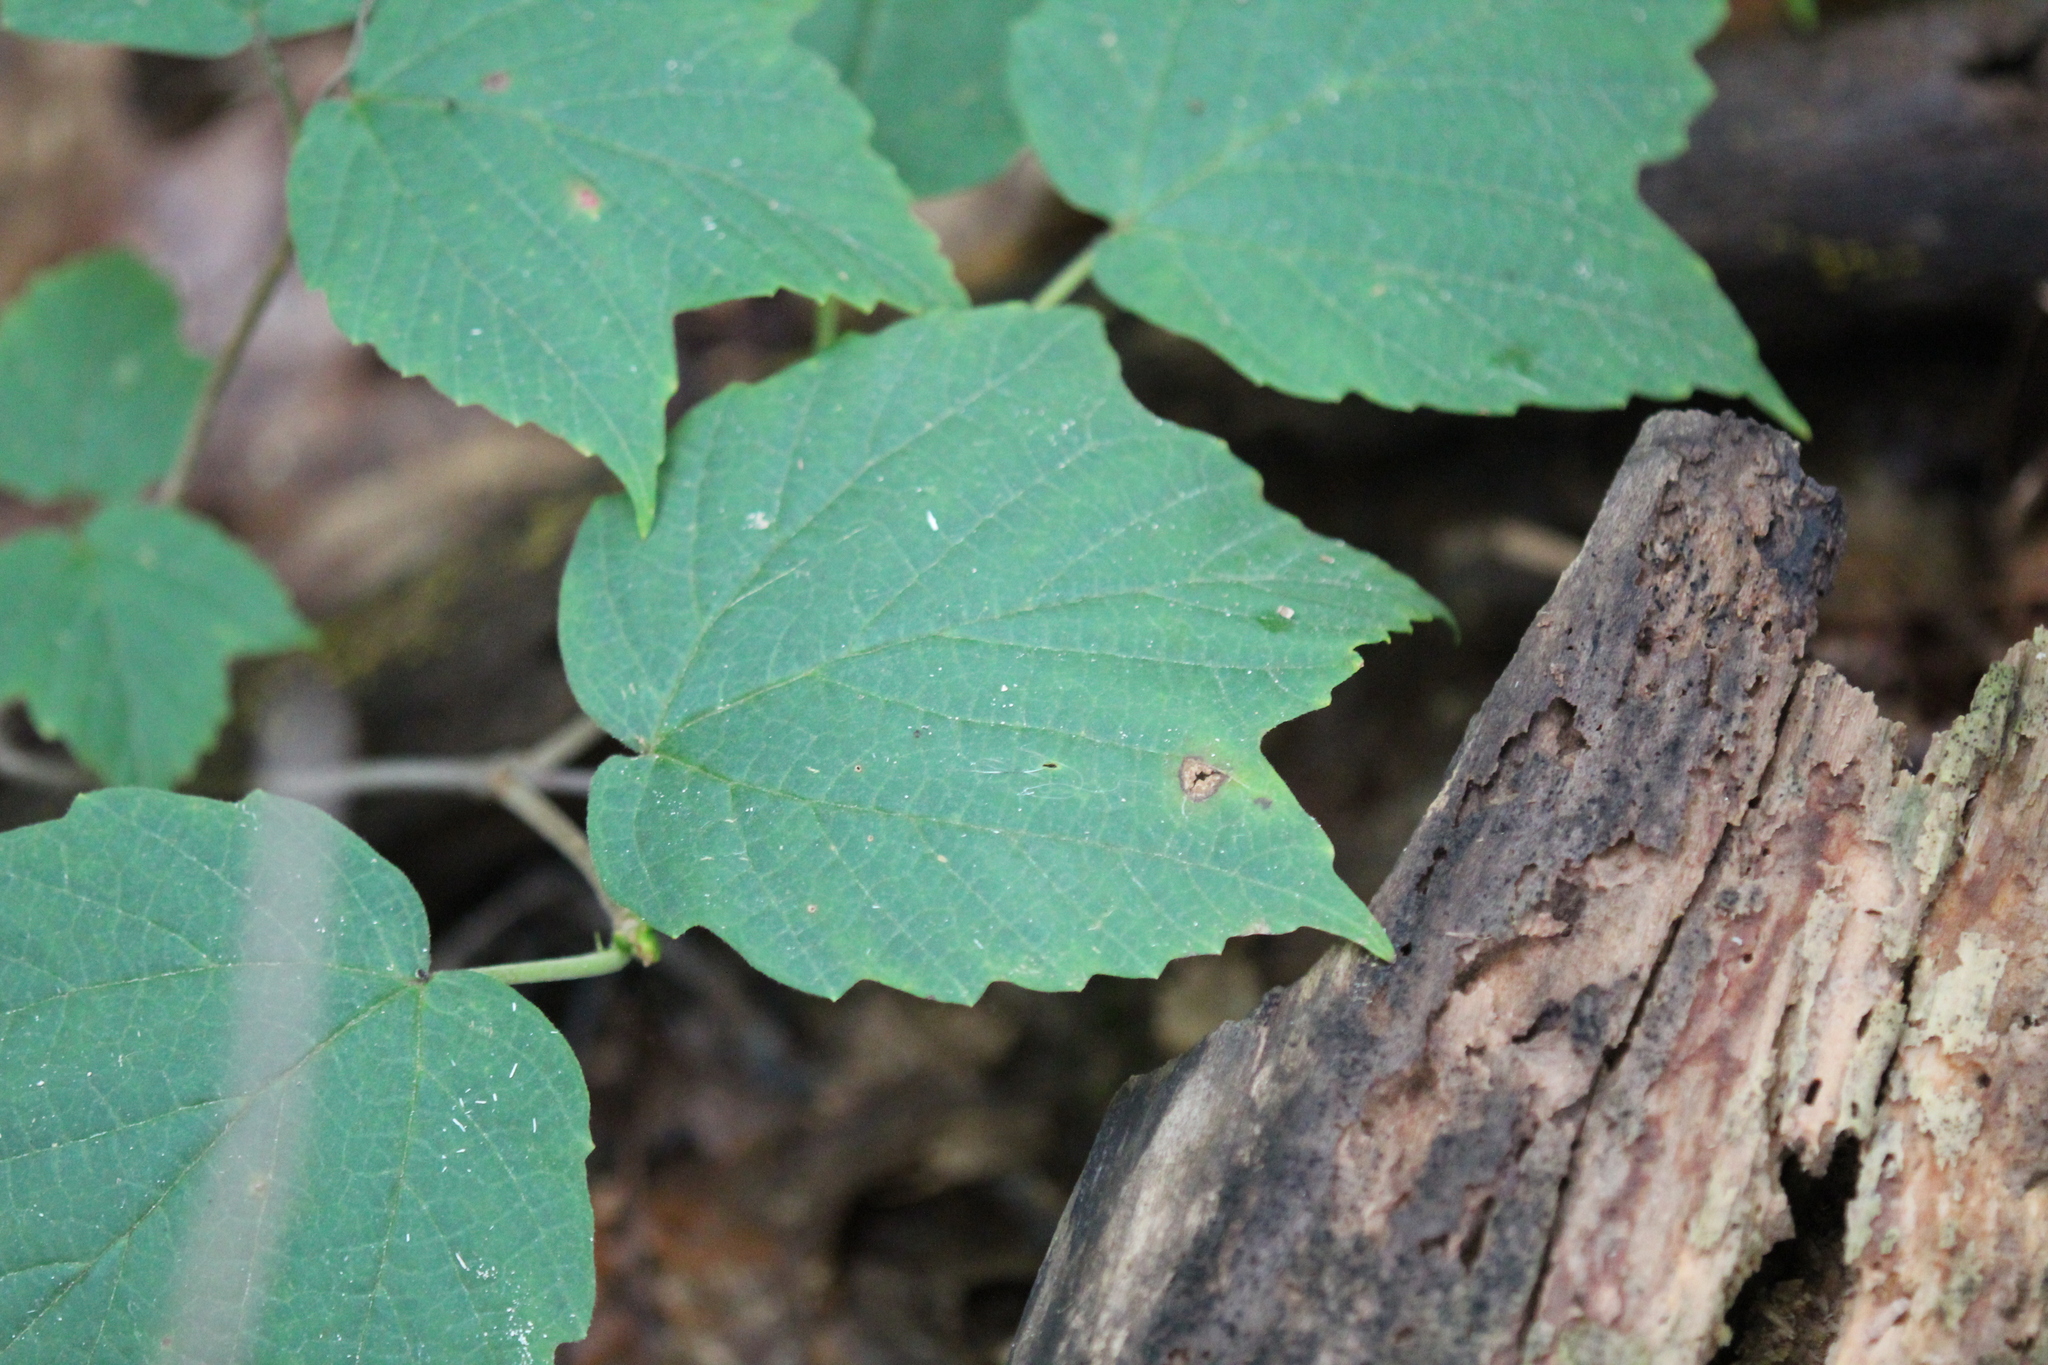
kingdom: Plantae
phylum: Tracheophyta
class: Magnoliopsida
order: Dipsacales
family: Viburnaceae
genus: Viburnum
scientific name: Viburnum acerifolium
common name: Dockmackie
